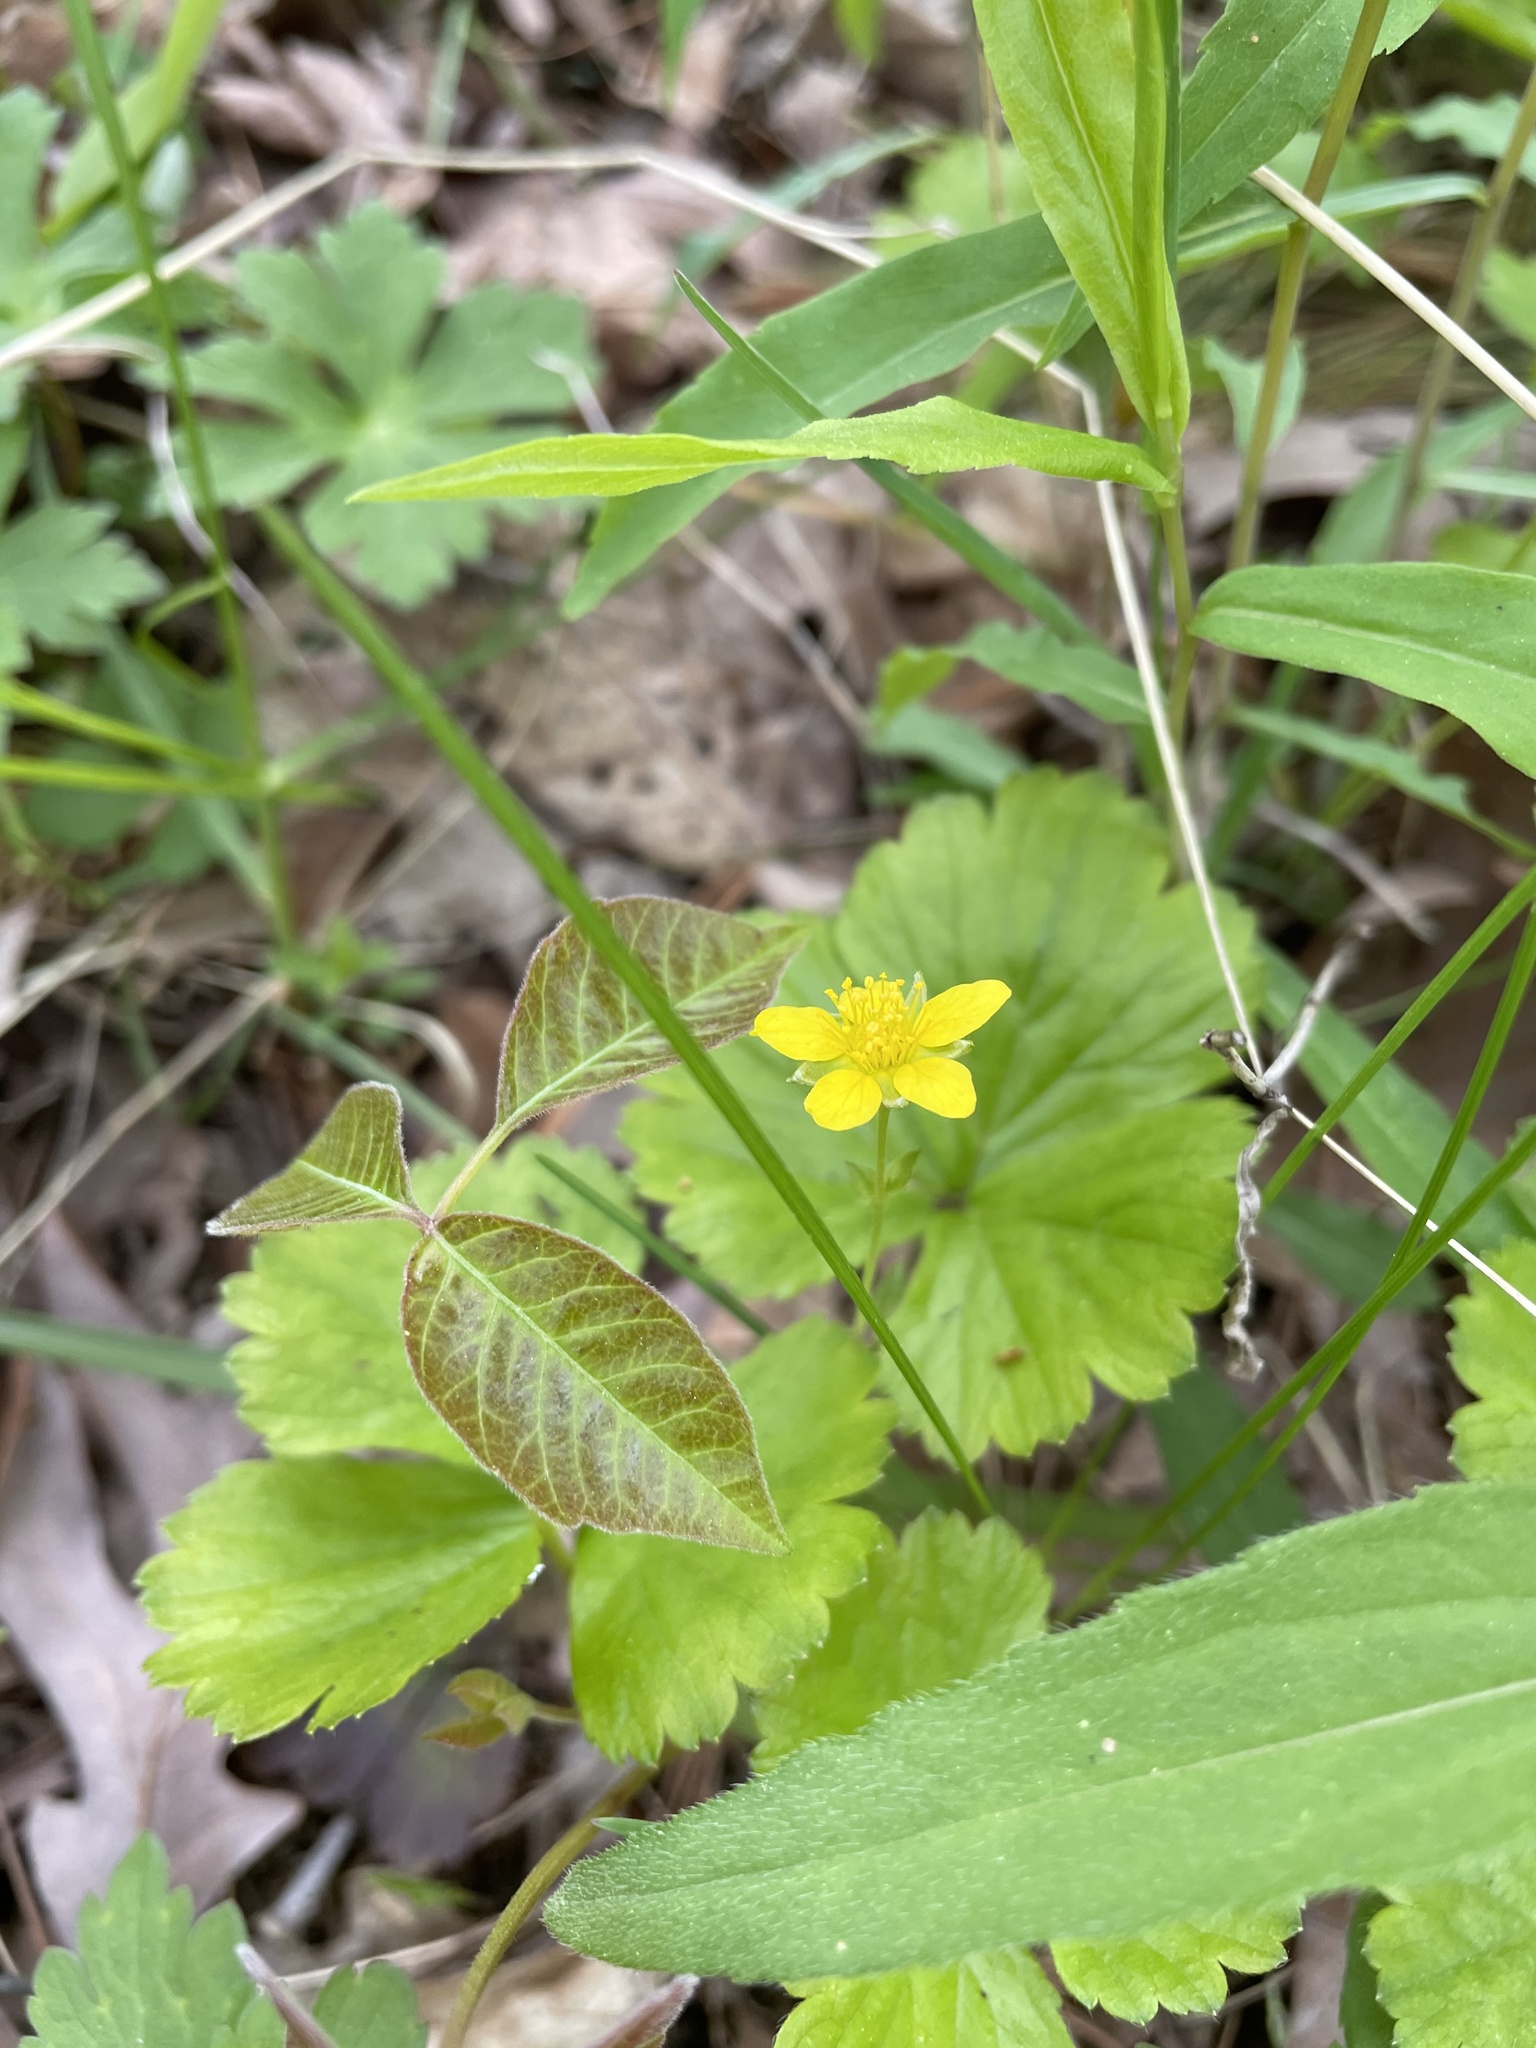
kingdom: Plantae
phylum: Tracheophyta
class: Magnoliopsida
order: Rosales
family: Rosaceae
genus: Geum
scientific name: Geum fragarioides
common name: Appalachian barren strawberry
